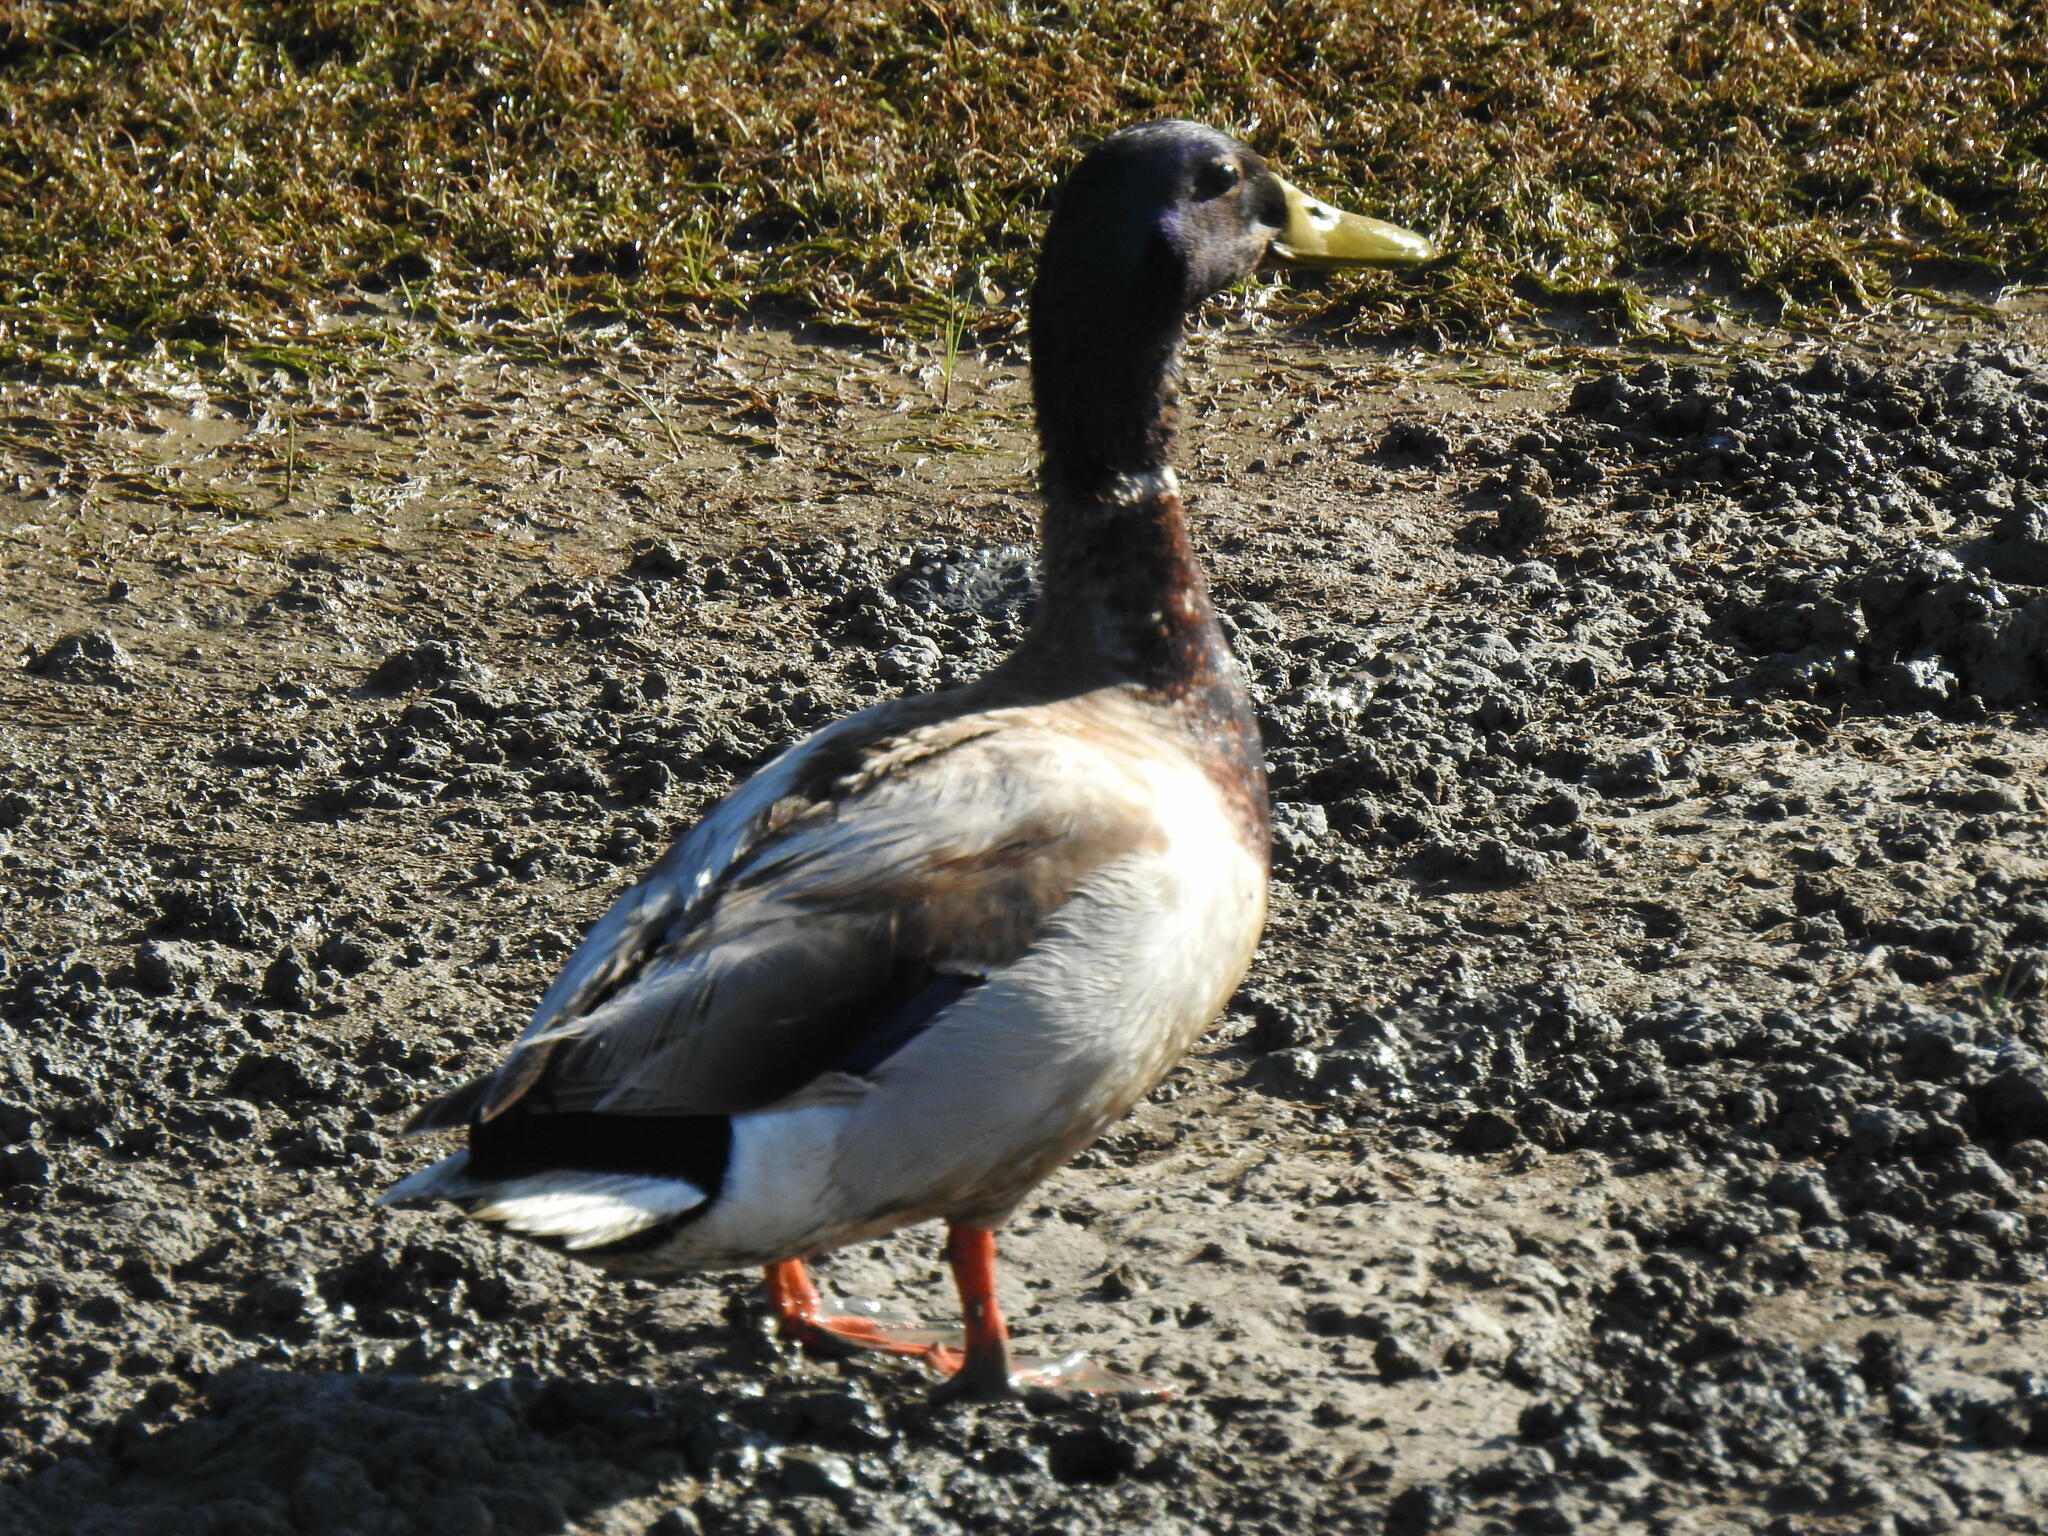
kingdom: Animalia
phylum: Chordata
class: Aves
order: Anseriformes
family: Anatidae
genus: Anas
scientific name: Anas platyrhynchos
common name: Mallard
